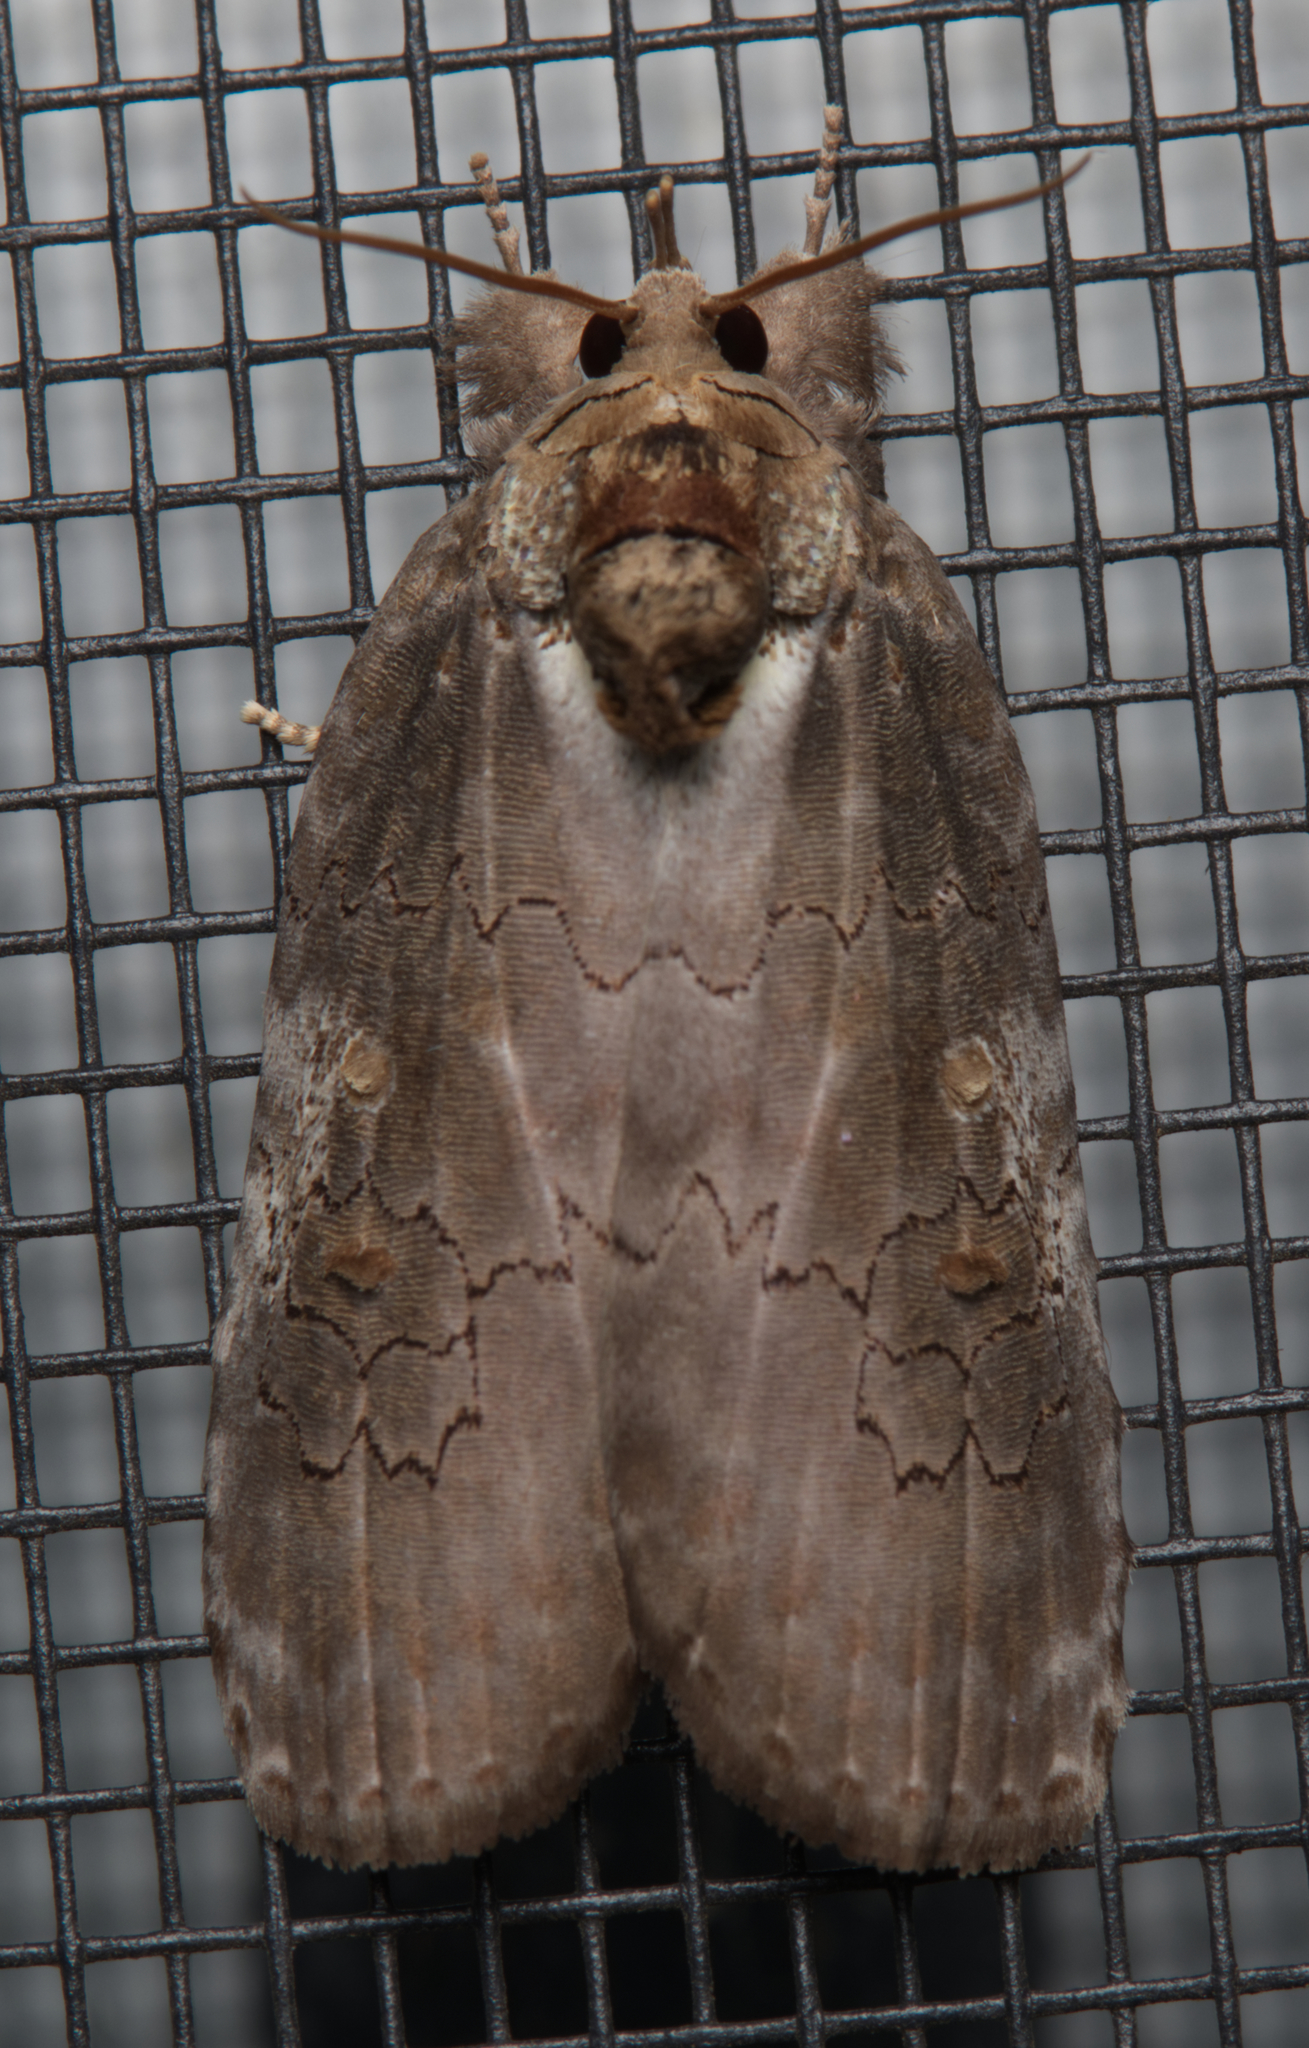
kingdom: Animalia
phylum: Arthropoda
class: Insecta
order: Lepidoptera
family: Noctuidae
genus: Ochthophora
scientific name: Ochthophora sericina
